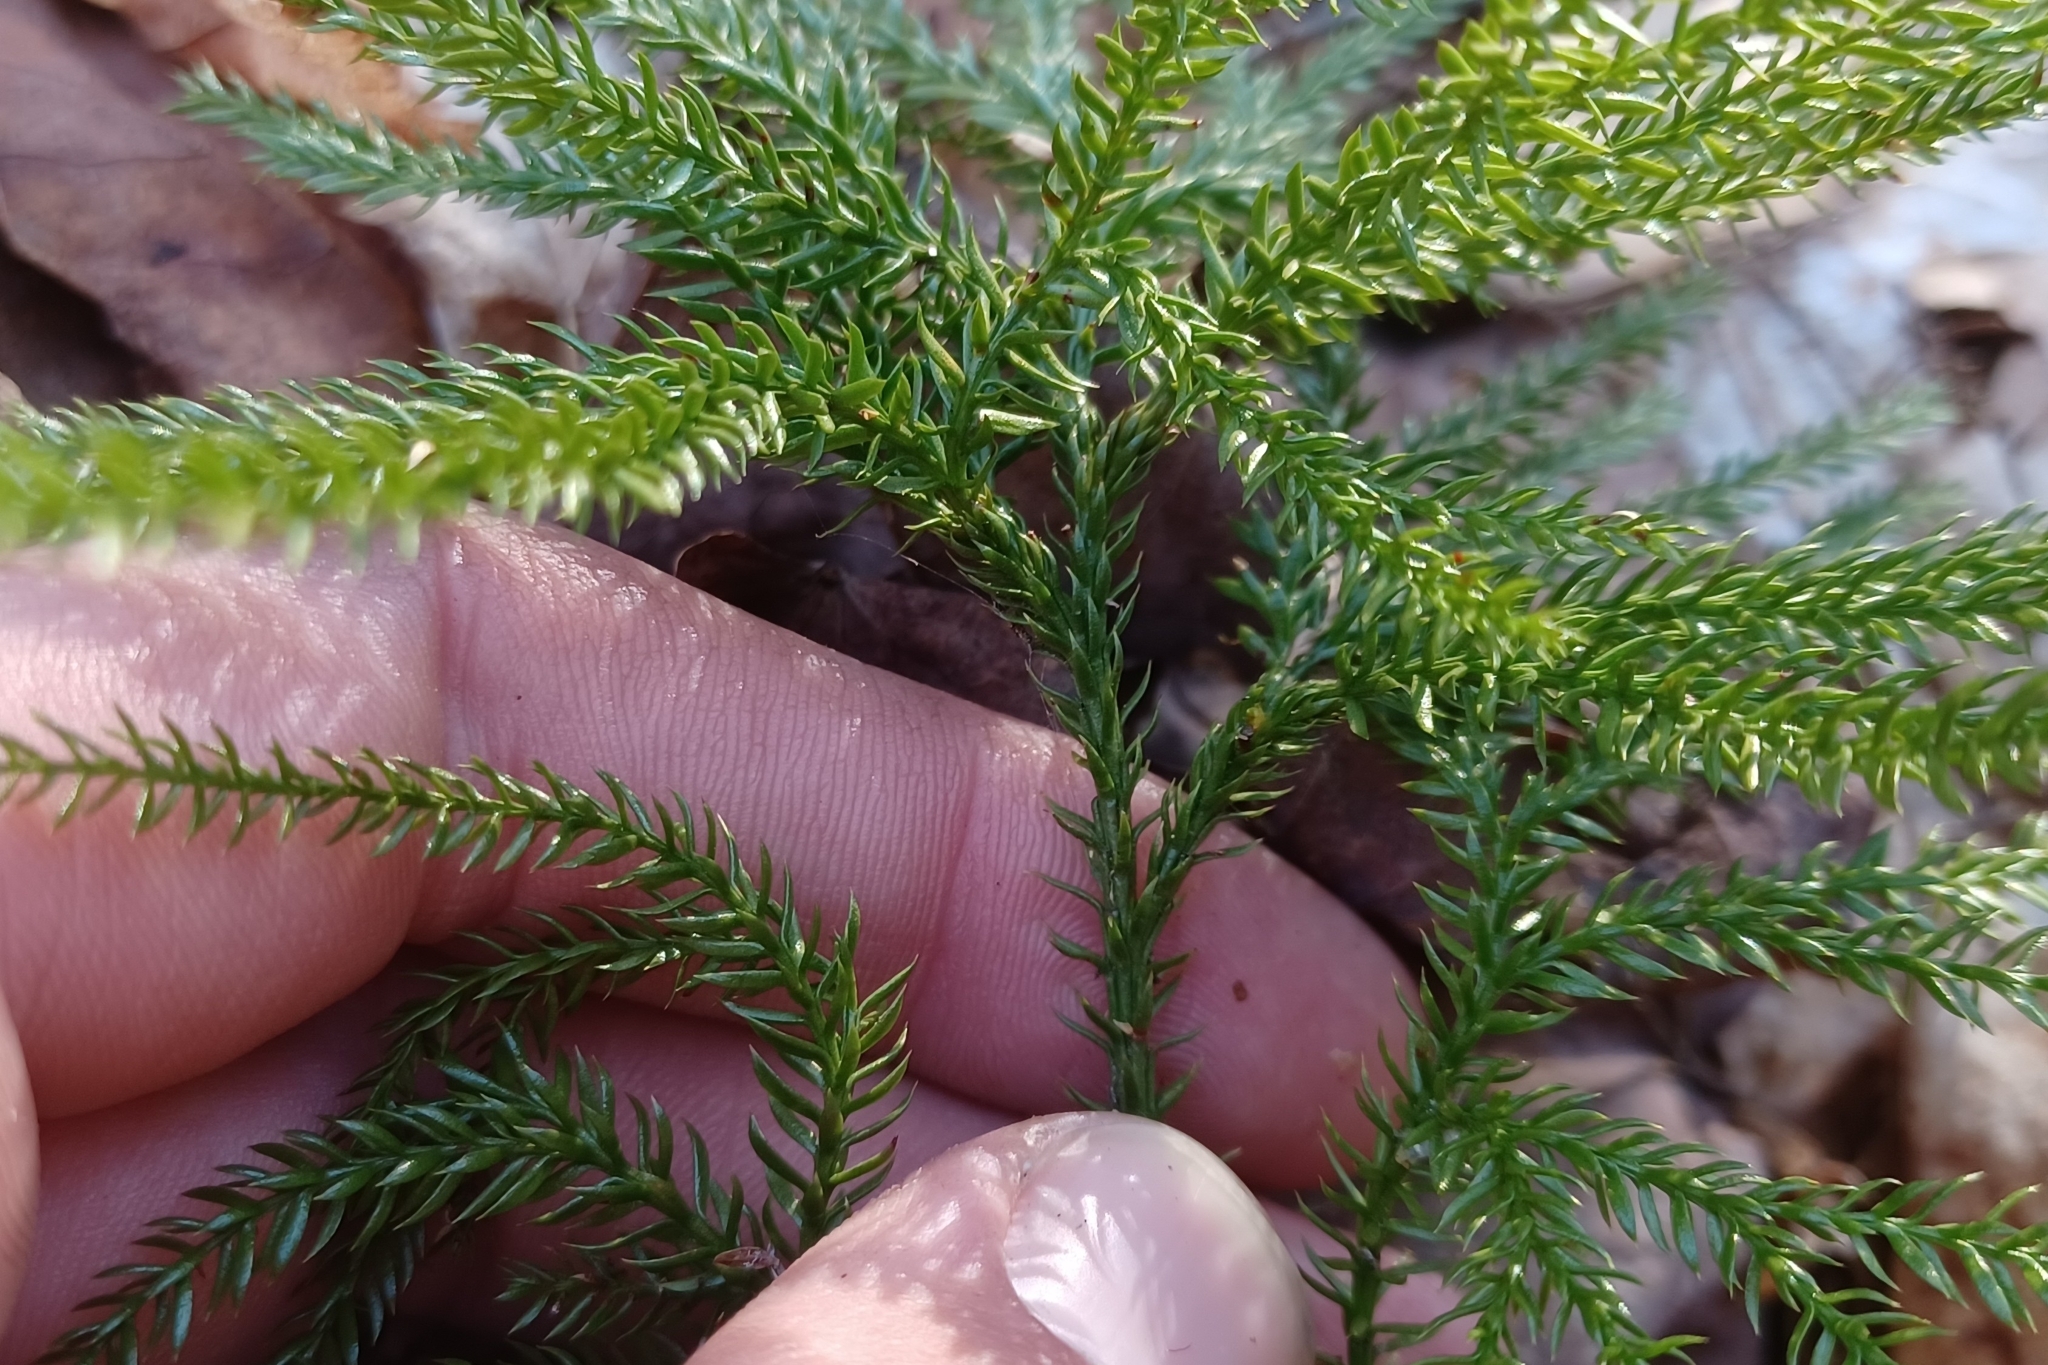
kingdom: Plantae
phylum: Tracheophyta
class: Lycopodiopsida
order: Lycopodiales
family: Lycopodiaceae
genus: Dendrolycopodium
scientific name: Dendrolycopodium dendroideum
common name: Northern tree-clubmoss
